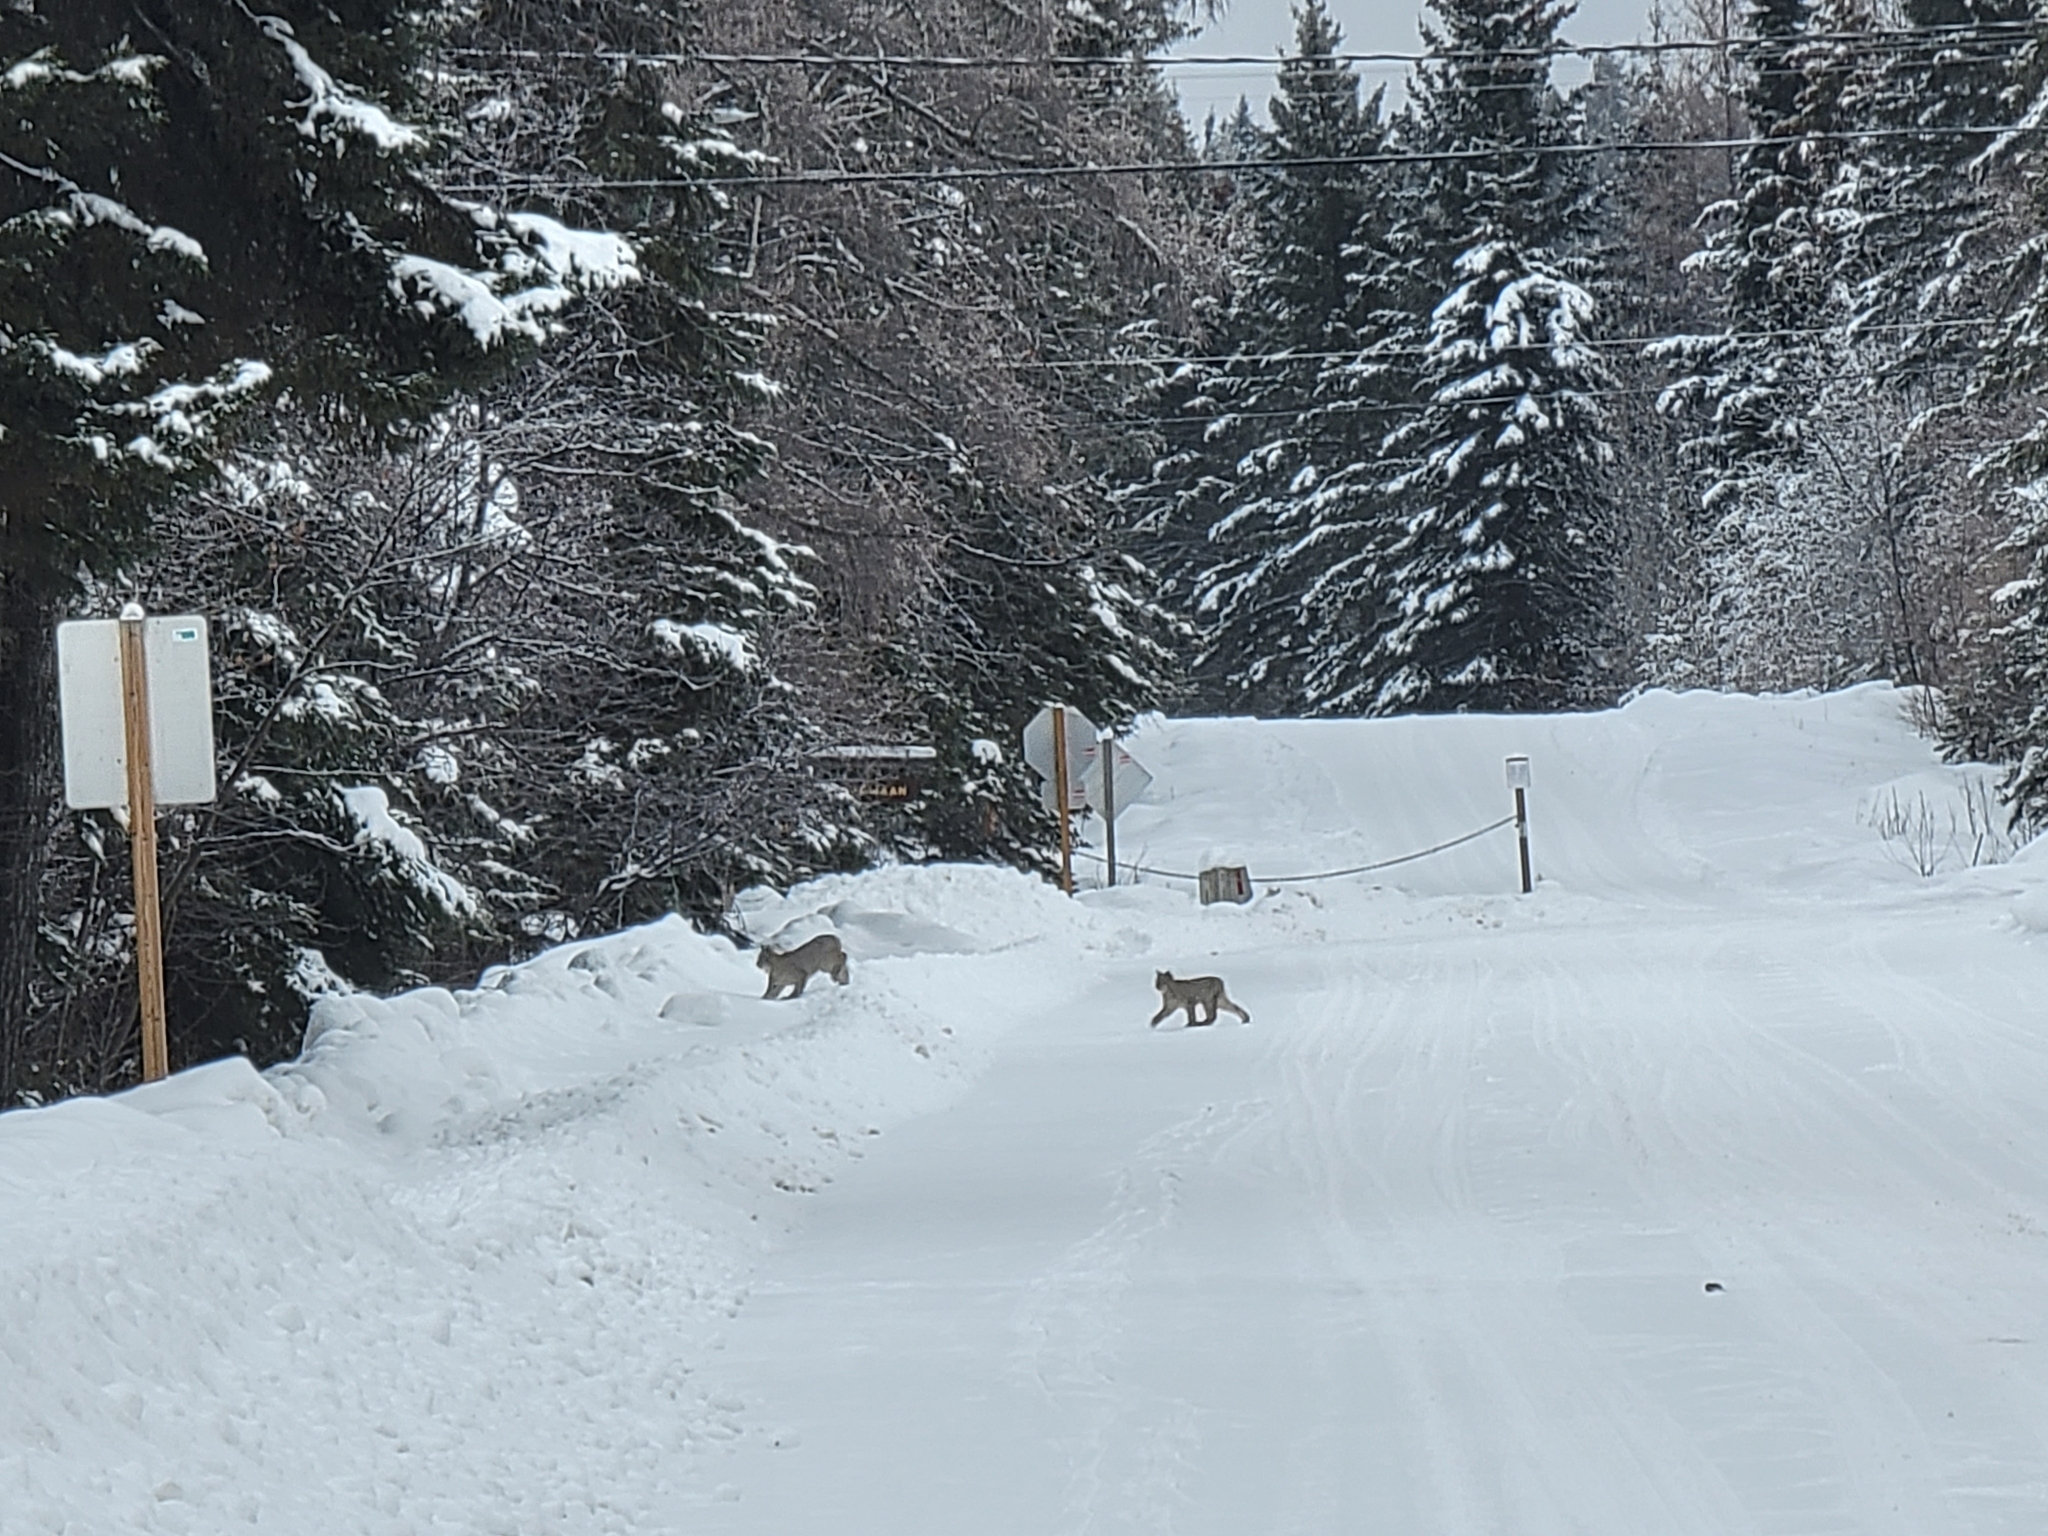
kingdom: Animalia
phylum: Chordata
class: Mammalia
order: Carnivora
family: Felidae
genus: Lynx
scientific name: Lynx canadensis
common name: Canadian lynx
